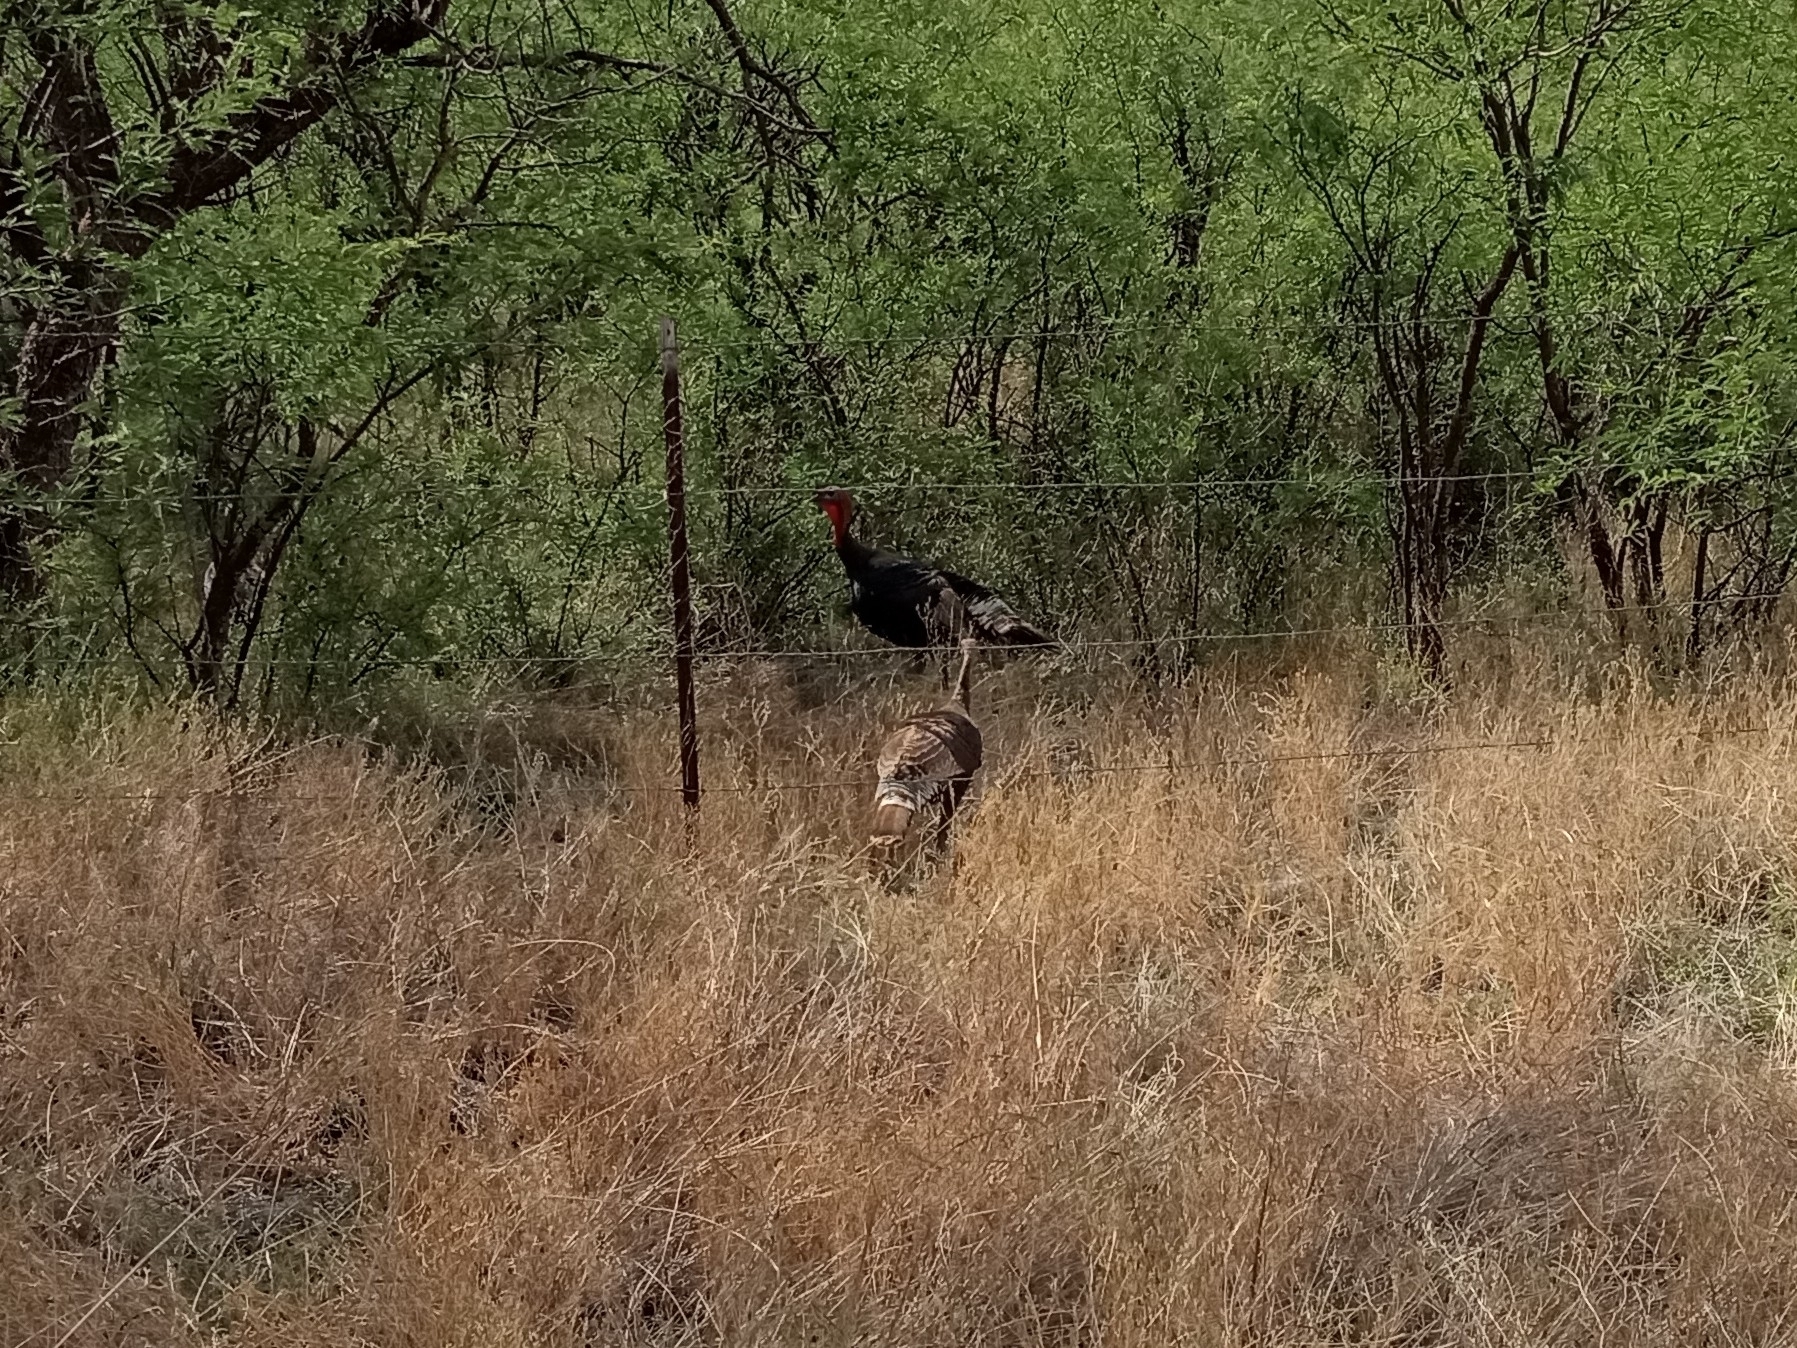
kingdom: Animalia
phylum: Chordata
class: Aves
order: Galliformes
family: Phasianidae
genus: Meleagris
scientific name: Meleagris gallopavo
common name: Wild turkey
